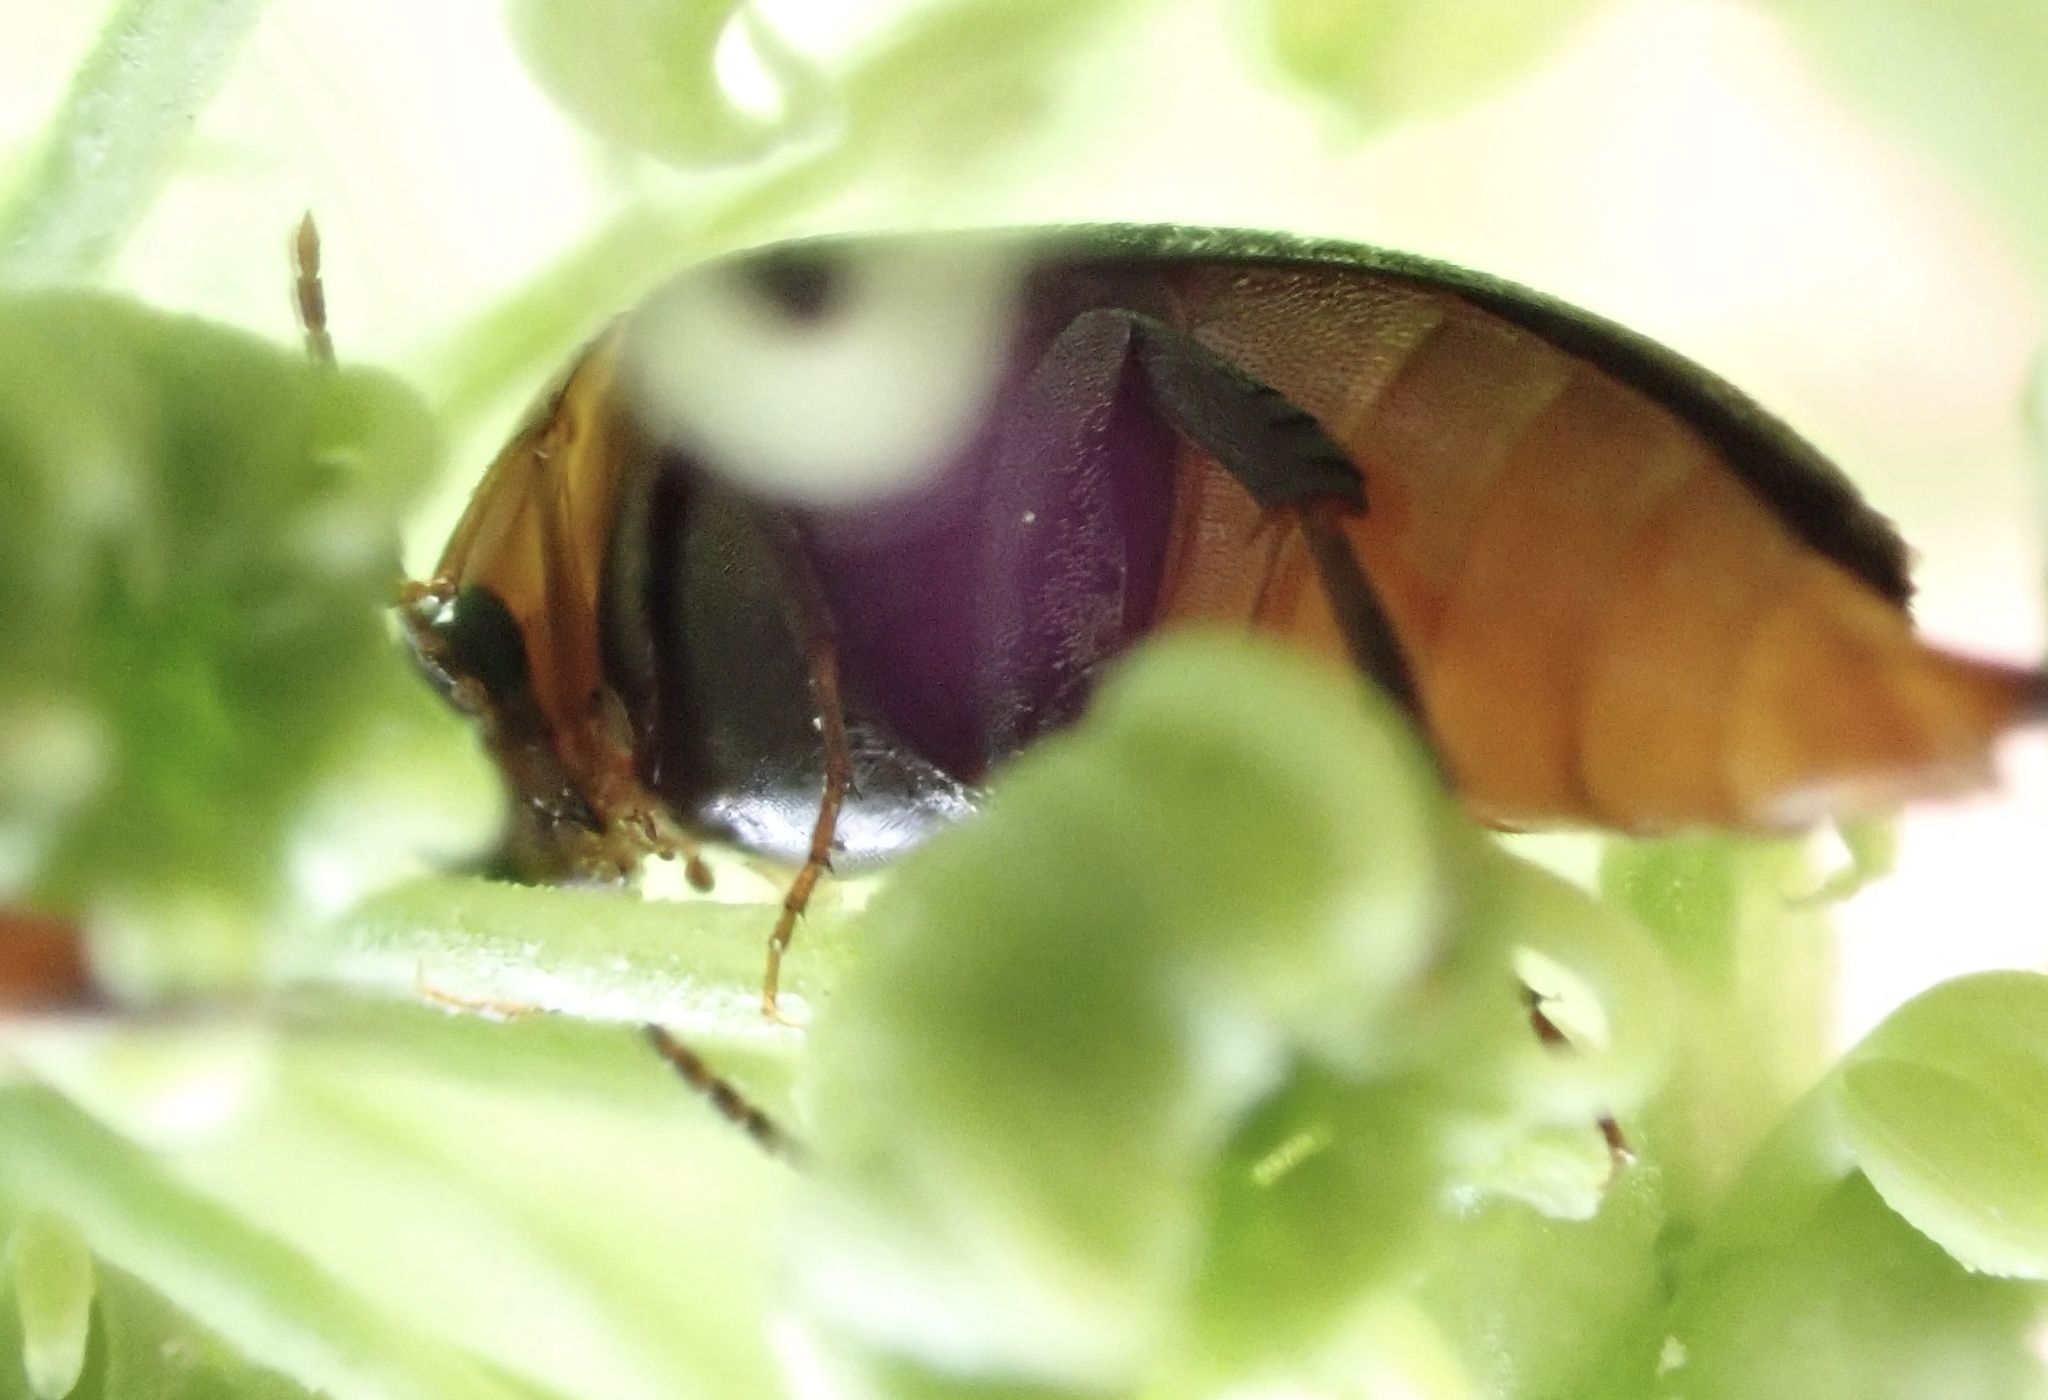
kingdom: Animalia
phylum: Arthropoda
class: Insecta
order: Coleoptera
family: Mordellidae
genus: Mordellochroa
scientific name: Mordellochroa abdominalis
